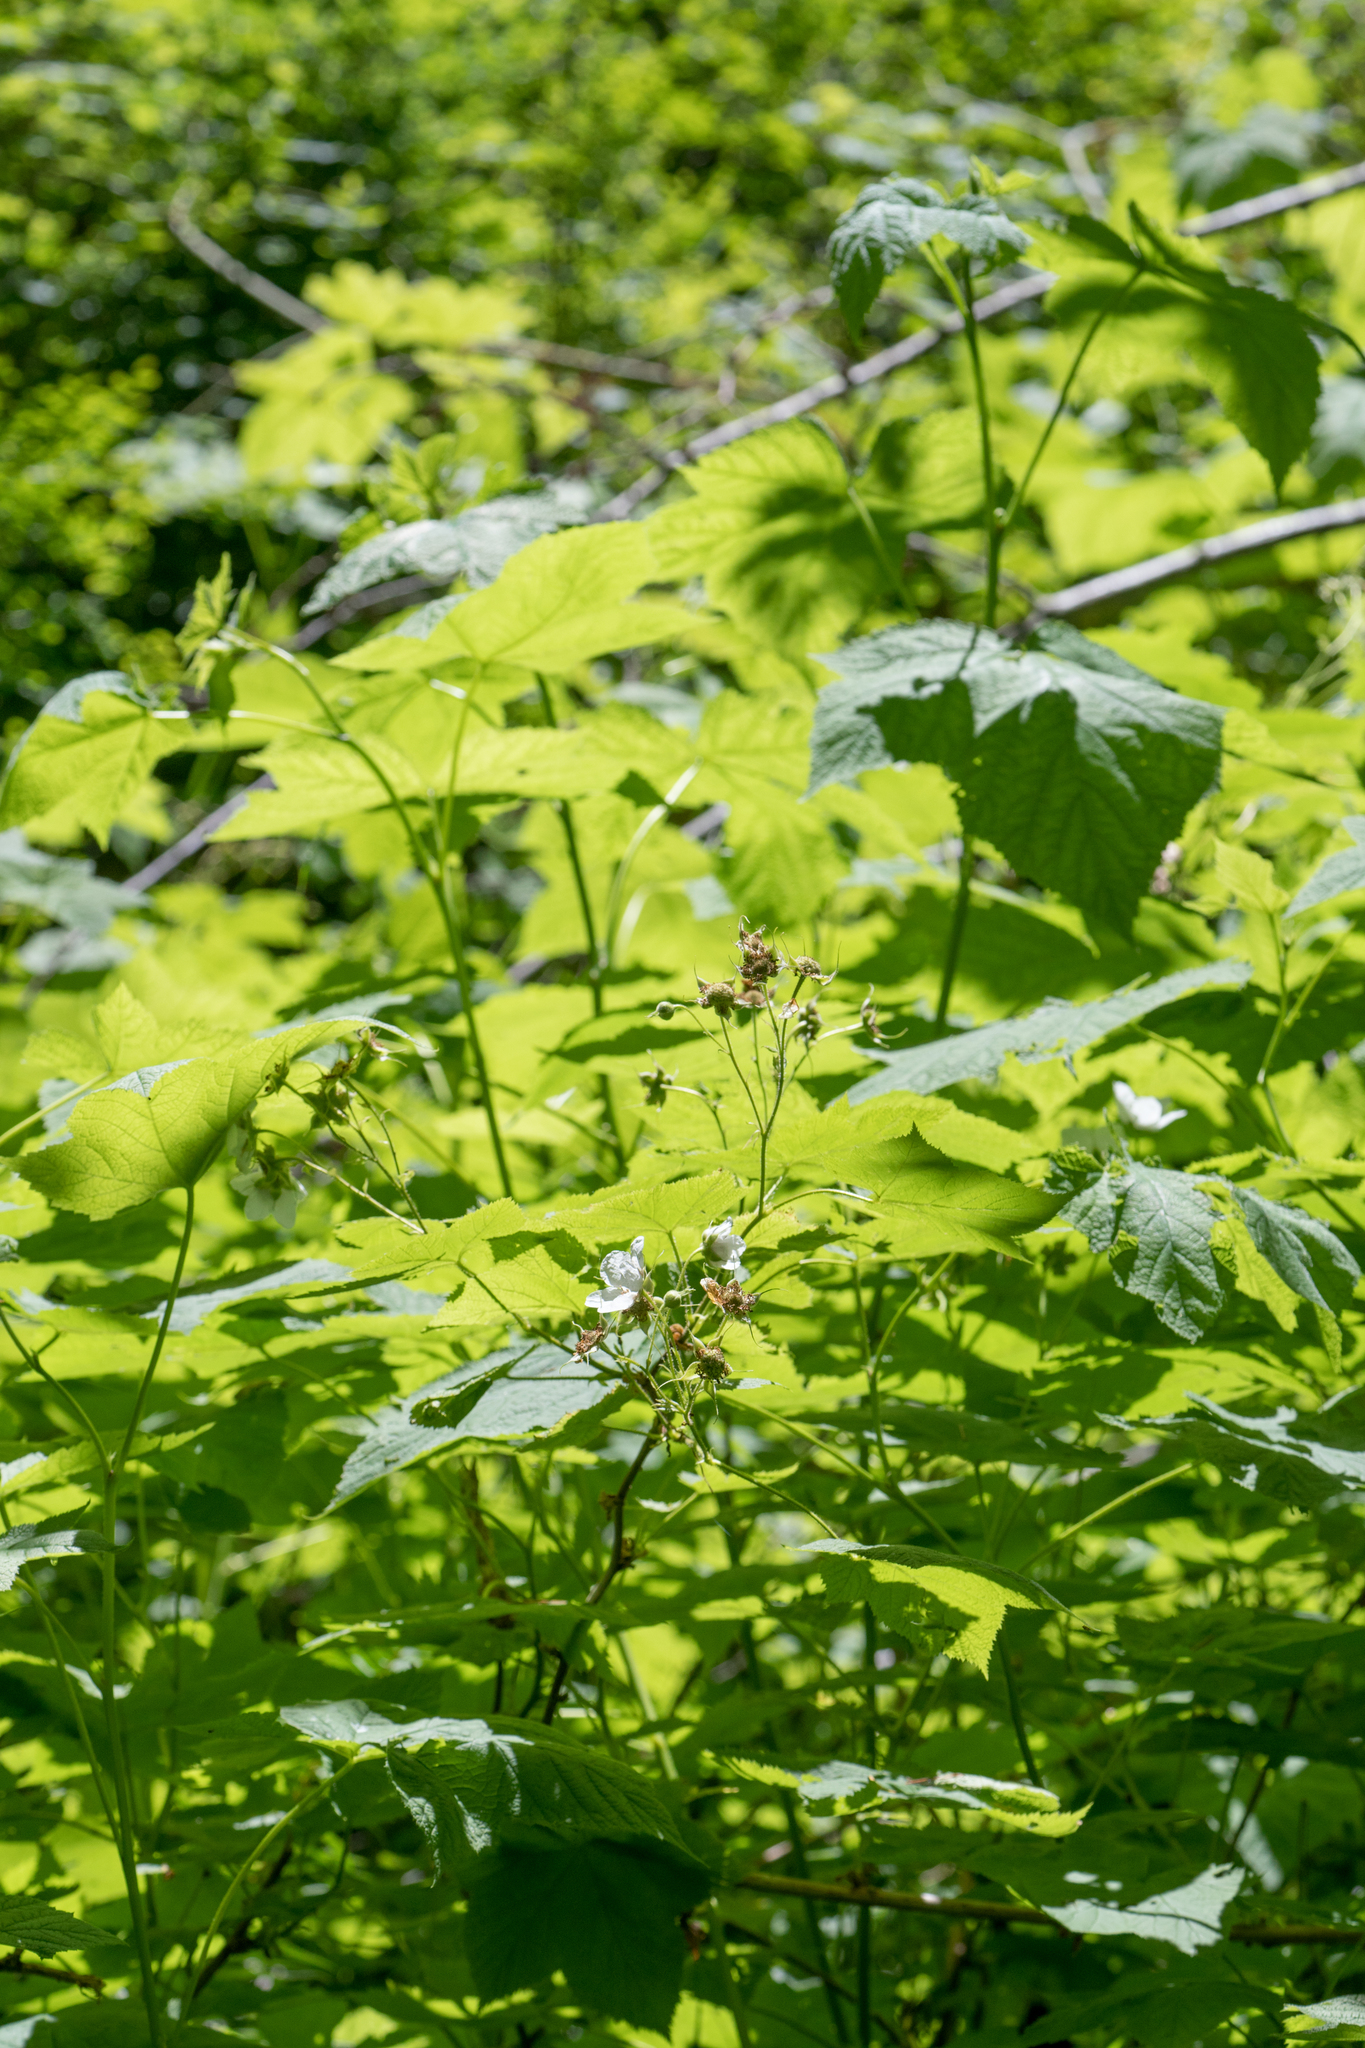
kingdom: Plantae
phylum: Tracheophyta
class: Magnoliopsida
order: Rosales
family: Rosaceae
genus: Rubus
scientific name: Rubus parviflorus
